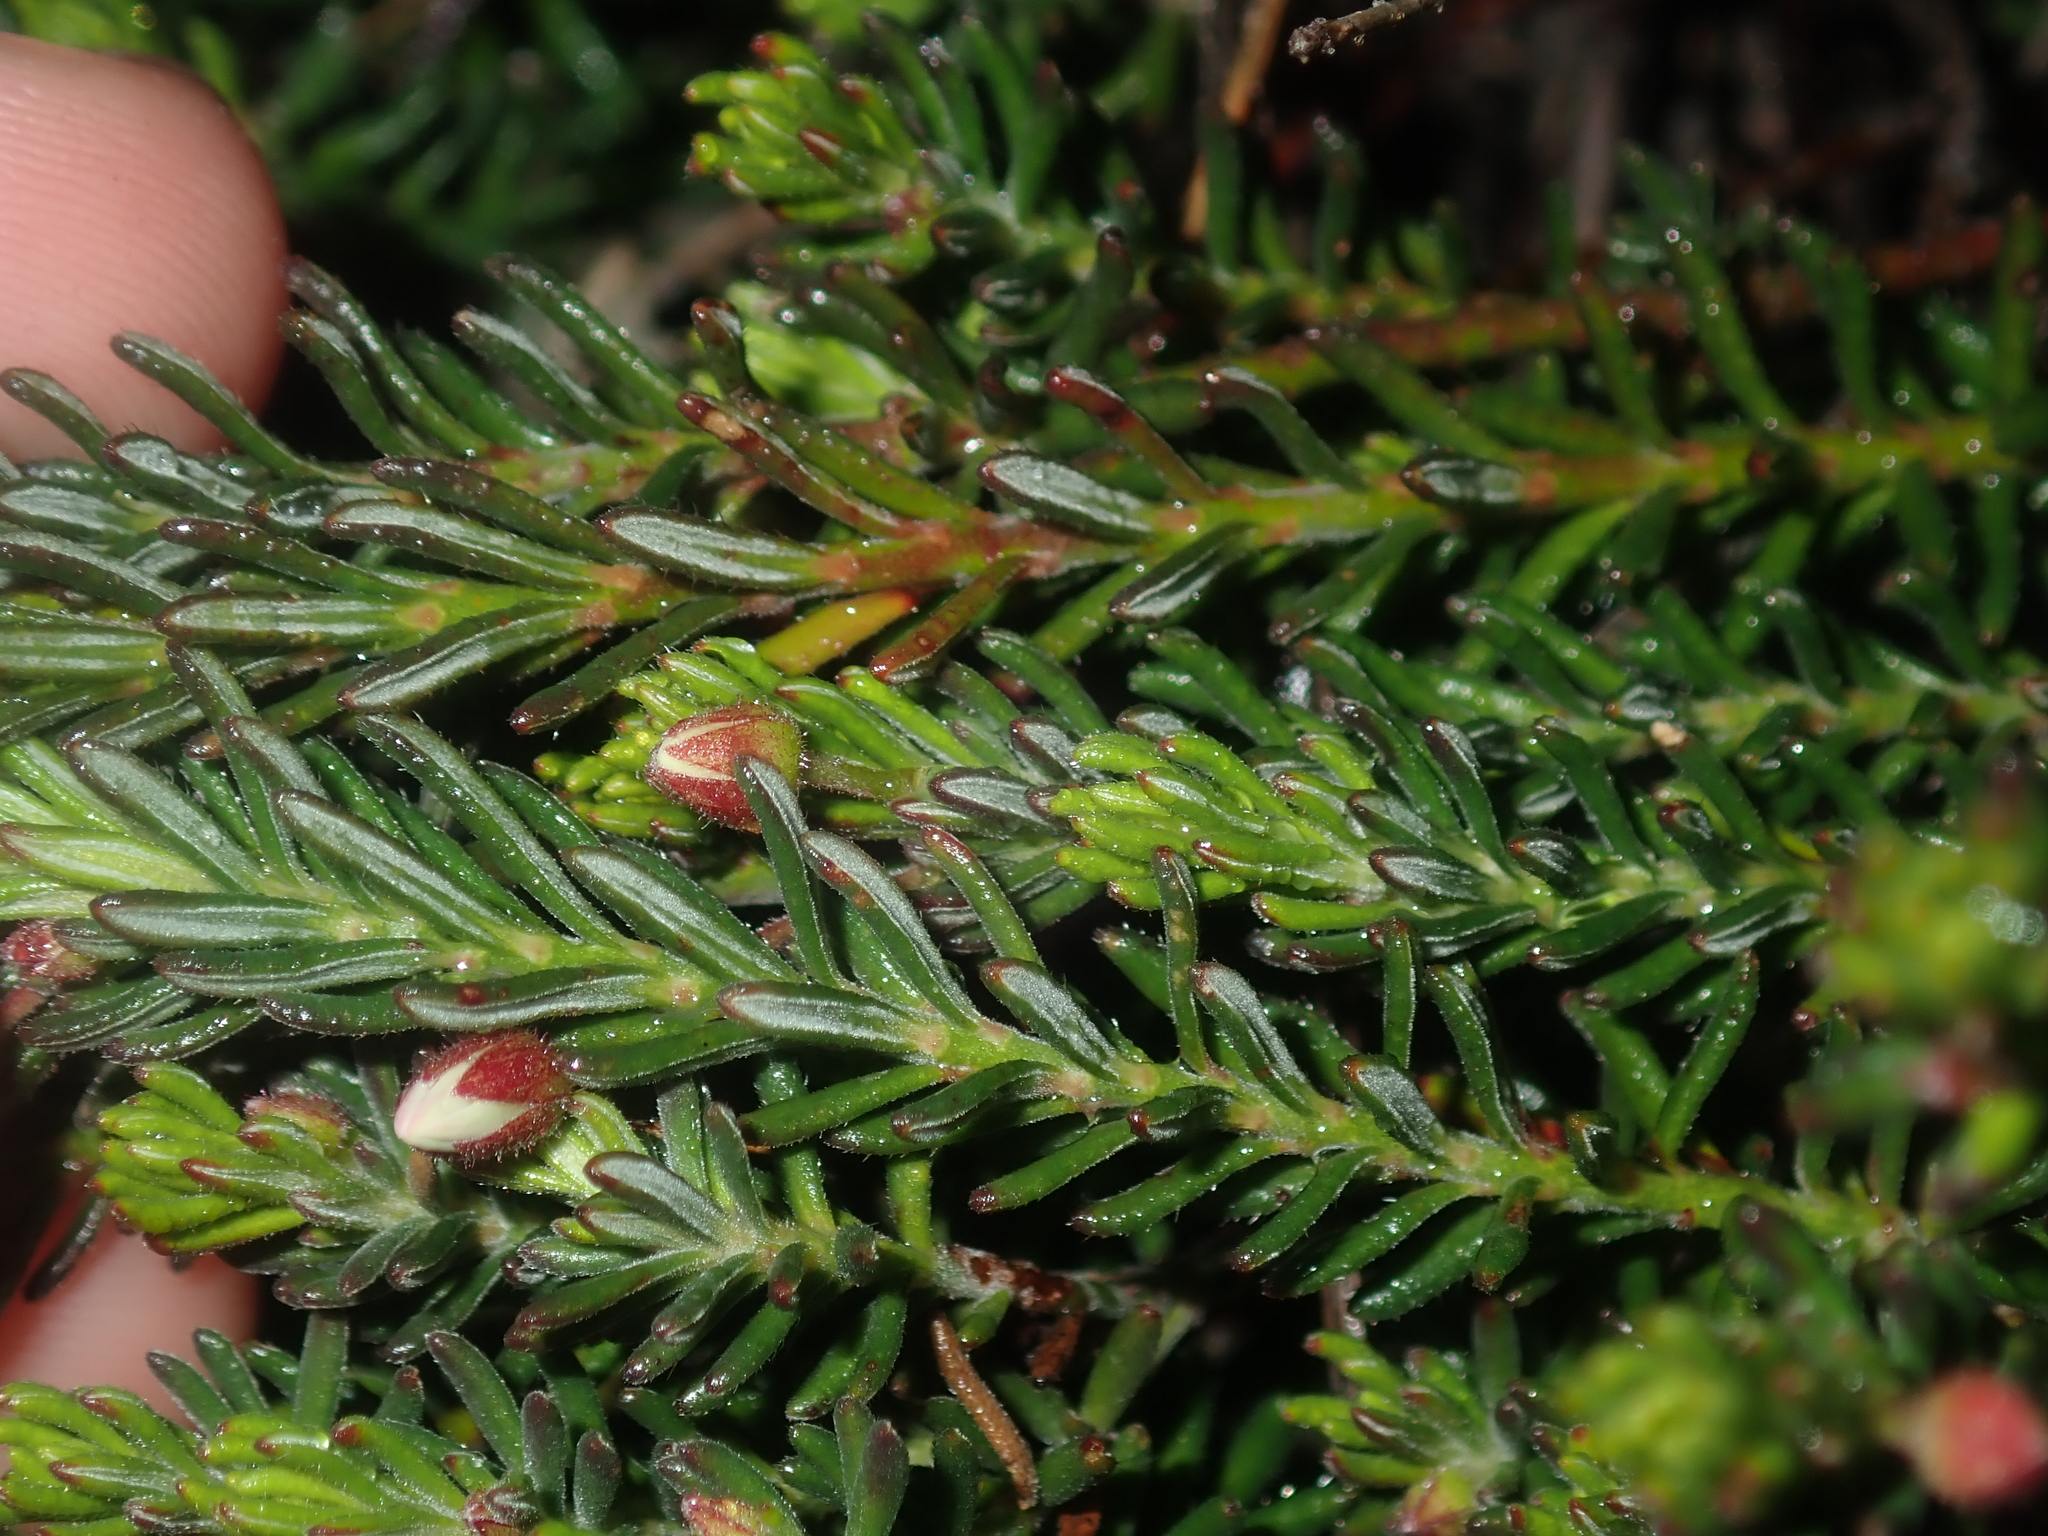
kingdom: Plantae
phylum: Tracheophyta
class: Magnoliopsida
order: Oxalidales
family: Elaeocarpaceae
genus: Tetratheca
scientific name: Tetratheca confertifolia
